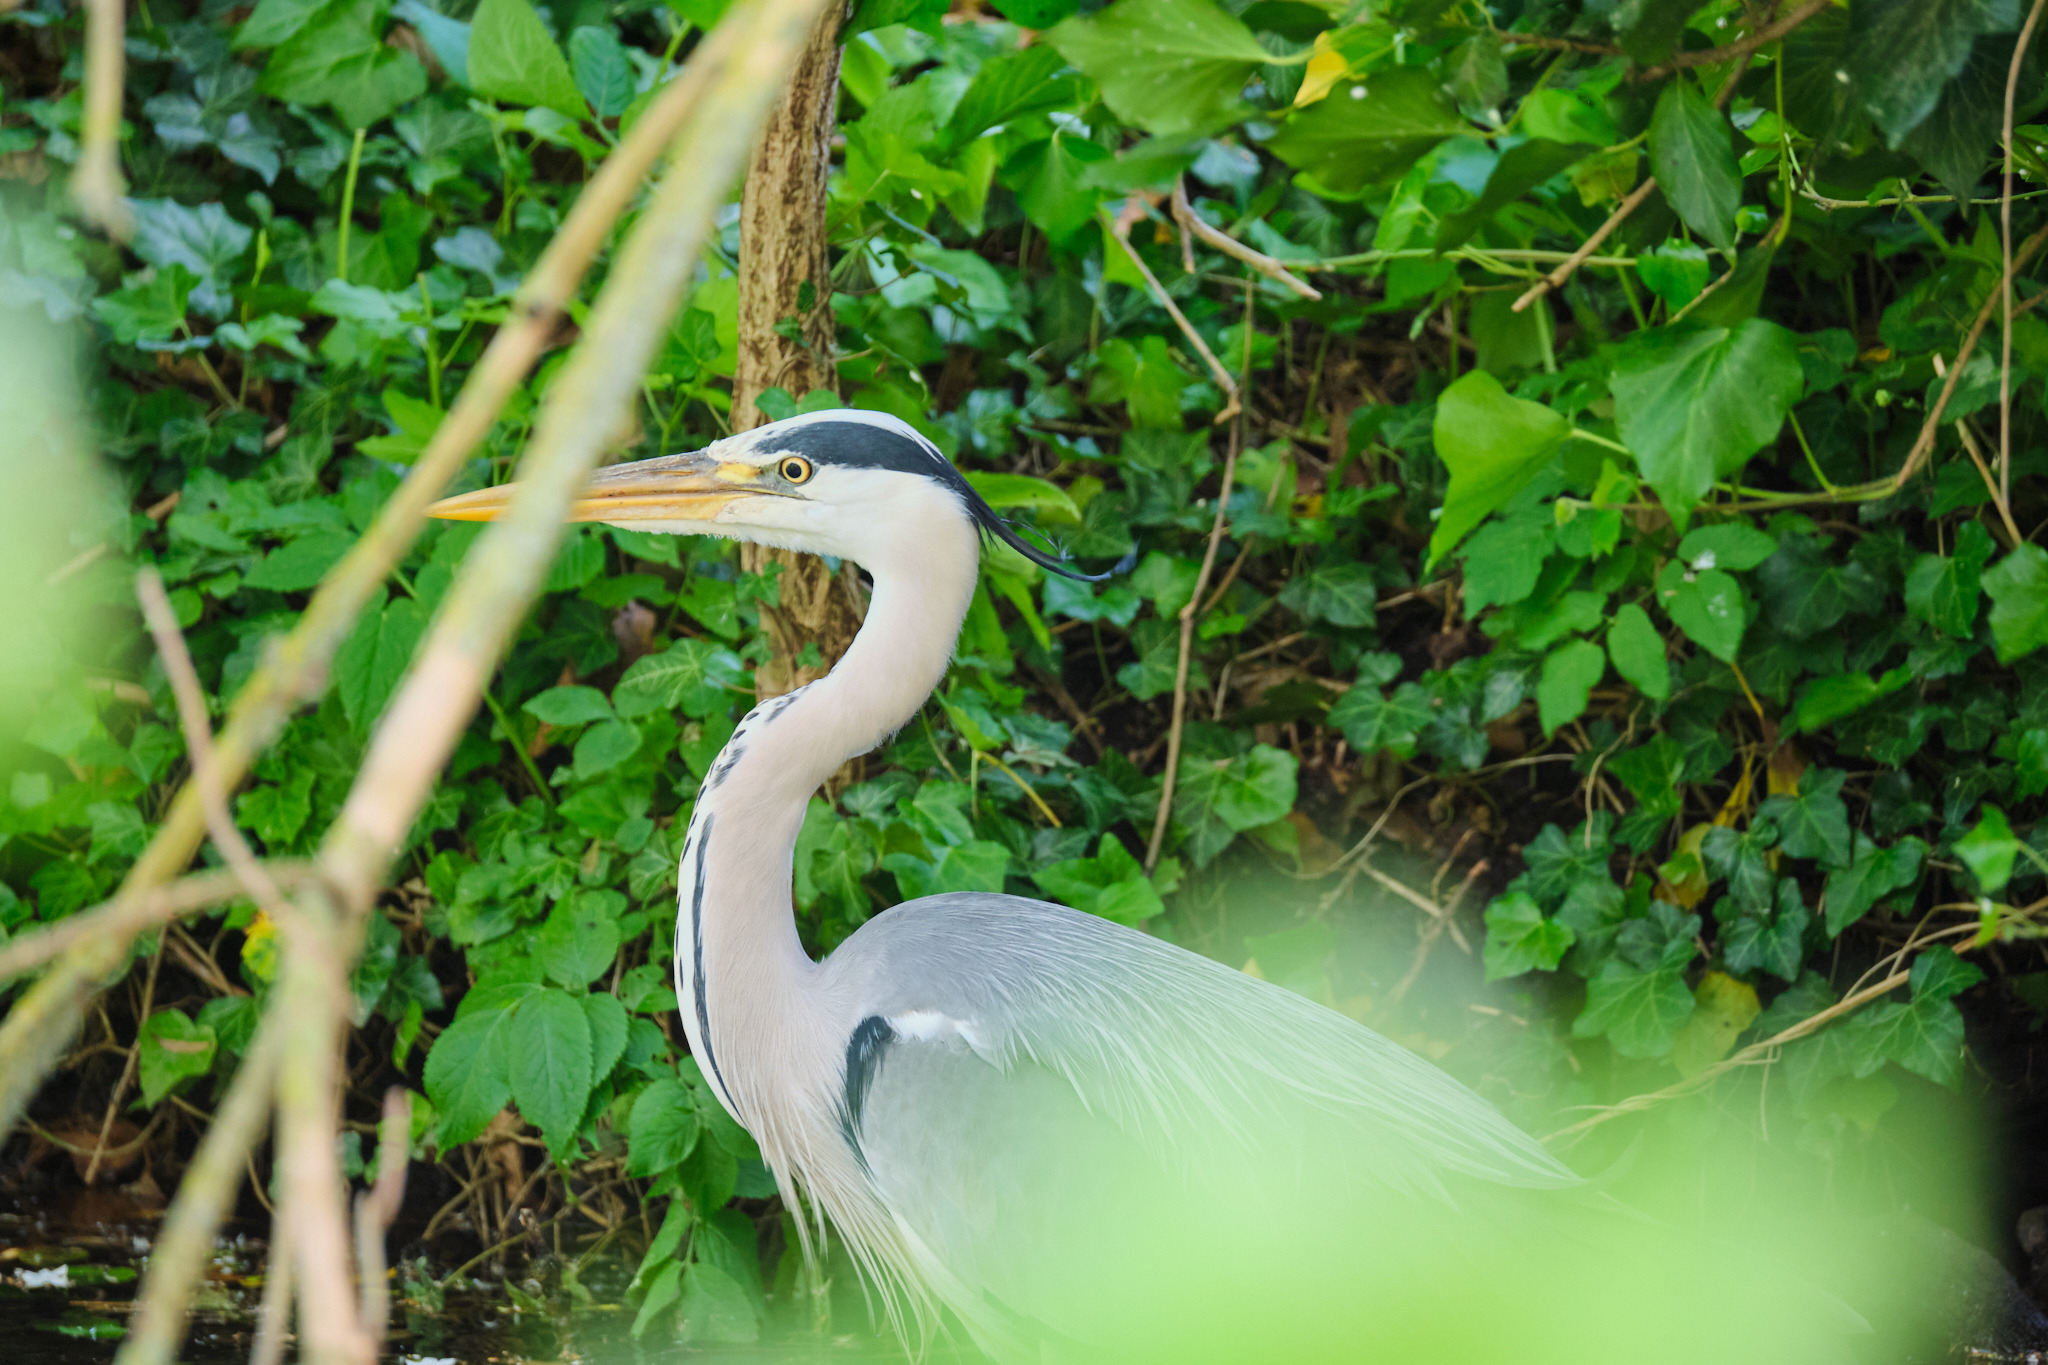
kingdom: Animalia
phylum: Chordata
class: Aves
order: Pelecaniformes
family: Ardeidae
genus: Ardea
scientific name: Ardea cinerea
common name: Grey heron
